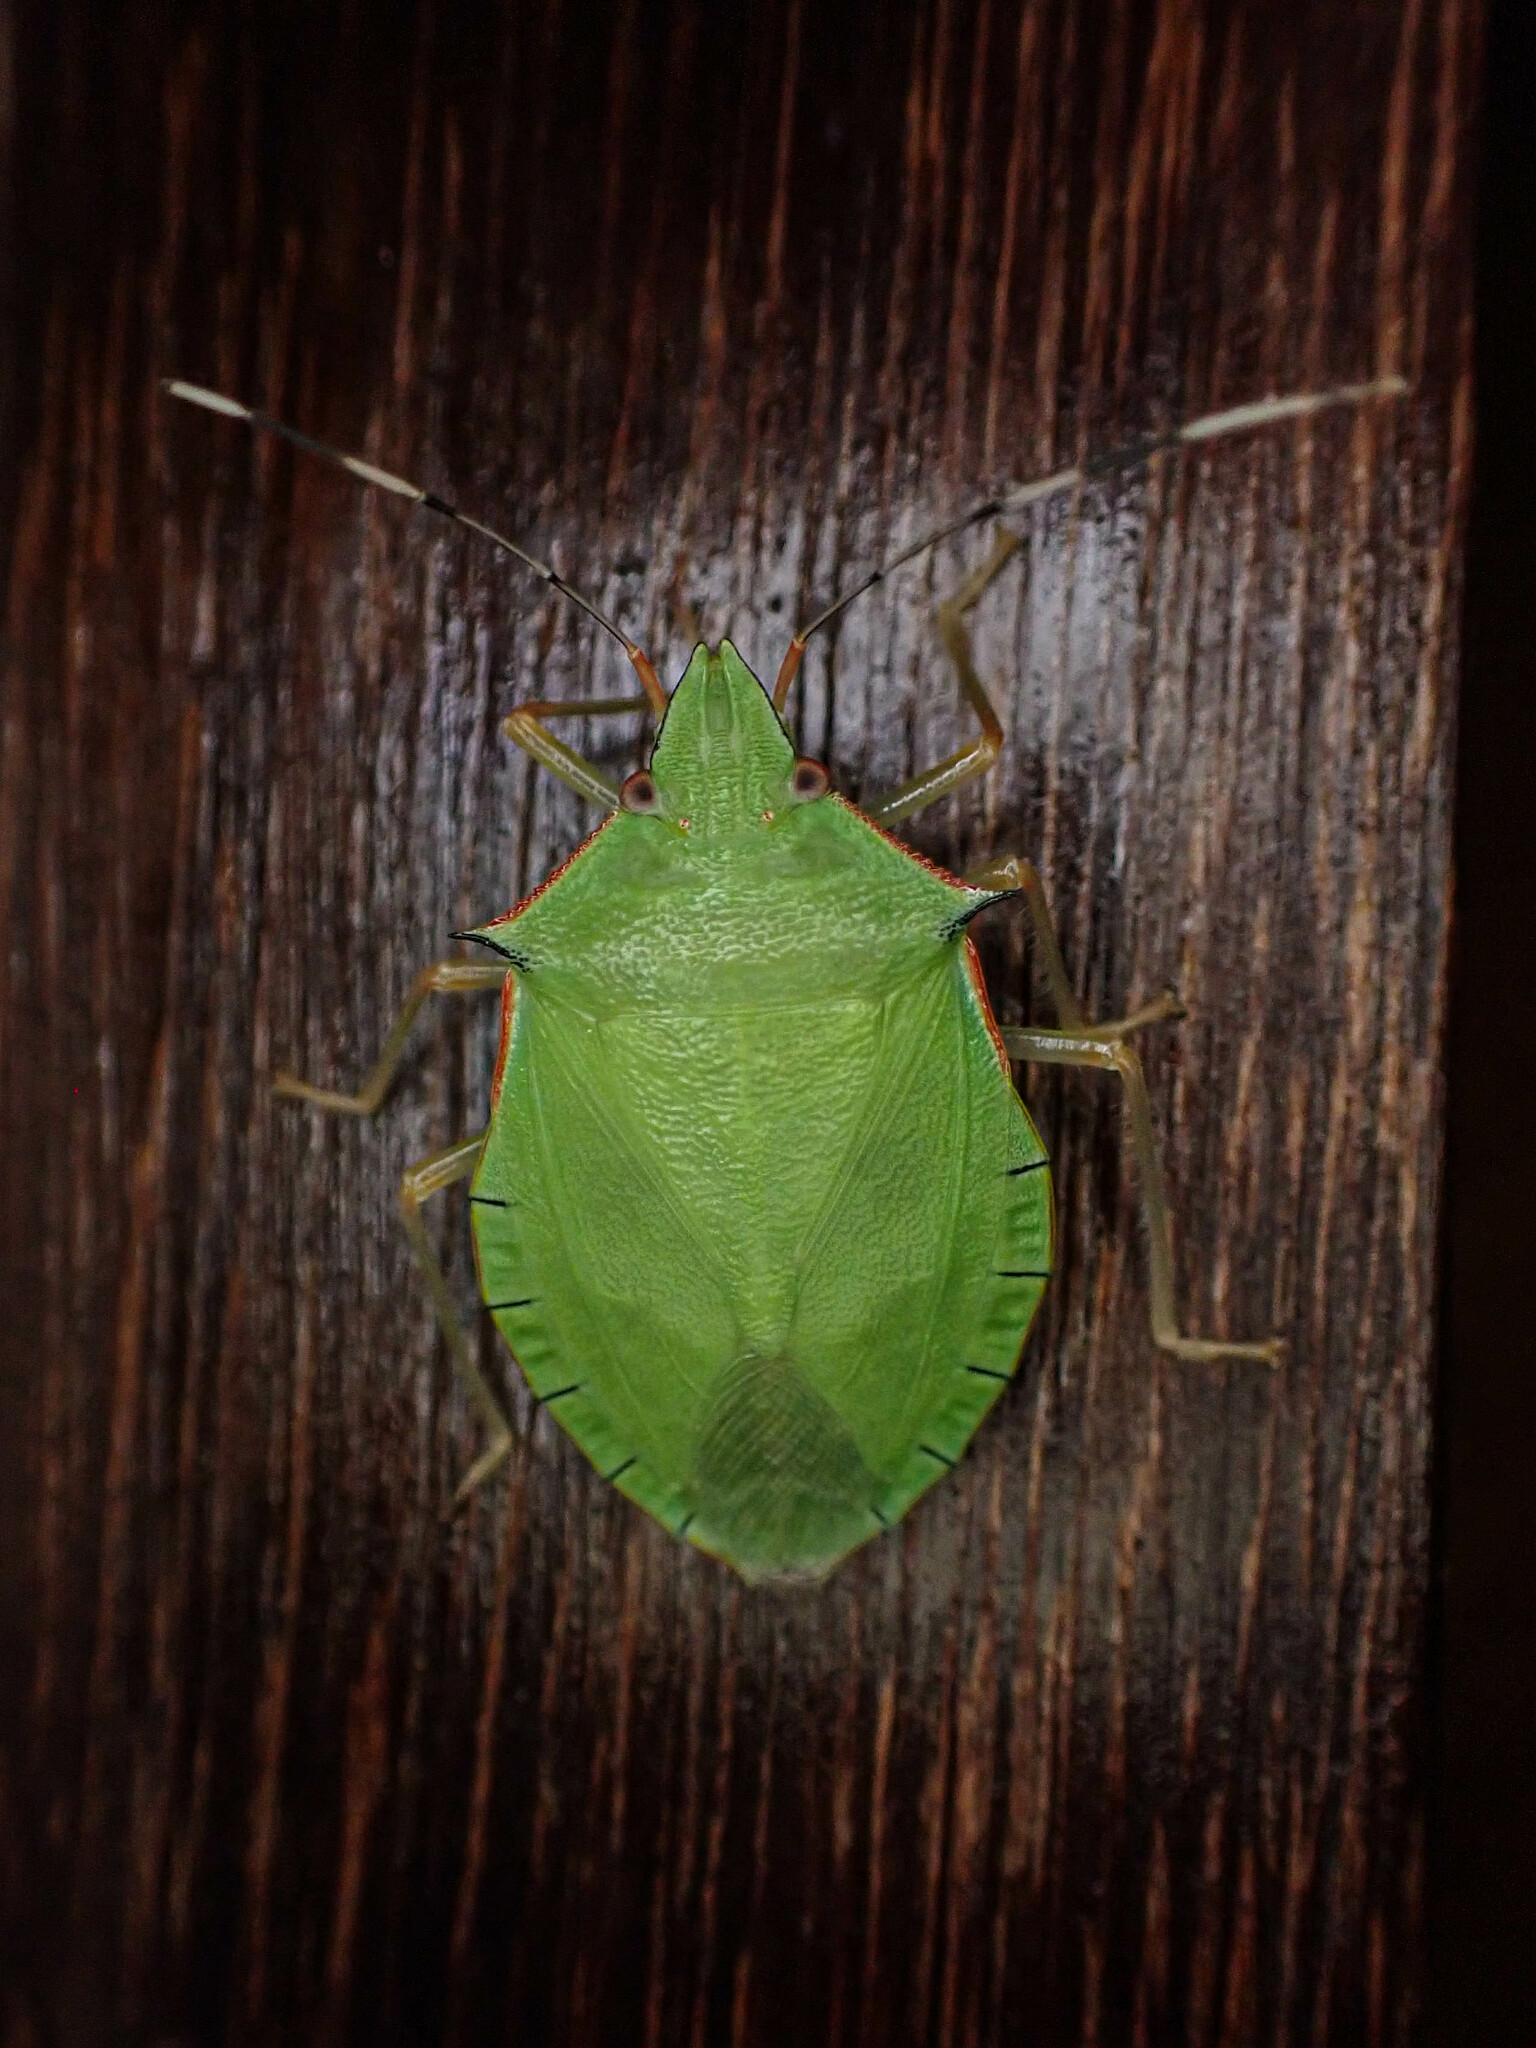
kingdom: Animalia
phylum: Arthropoda
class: Insecta
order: Hemiptera
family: Pentatomidae
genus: Chlorocoris
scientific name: Chlorocoris distinctus
